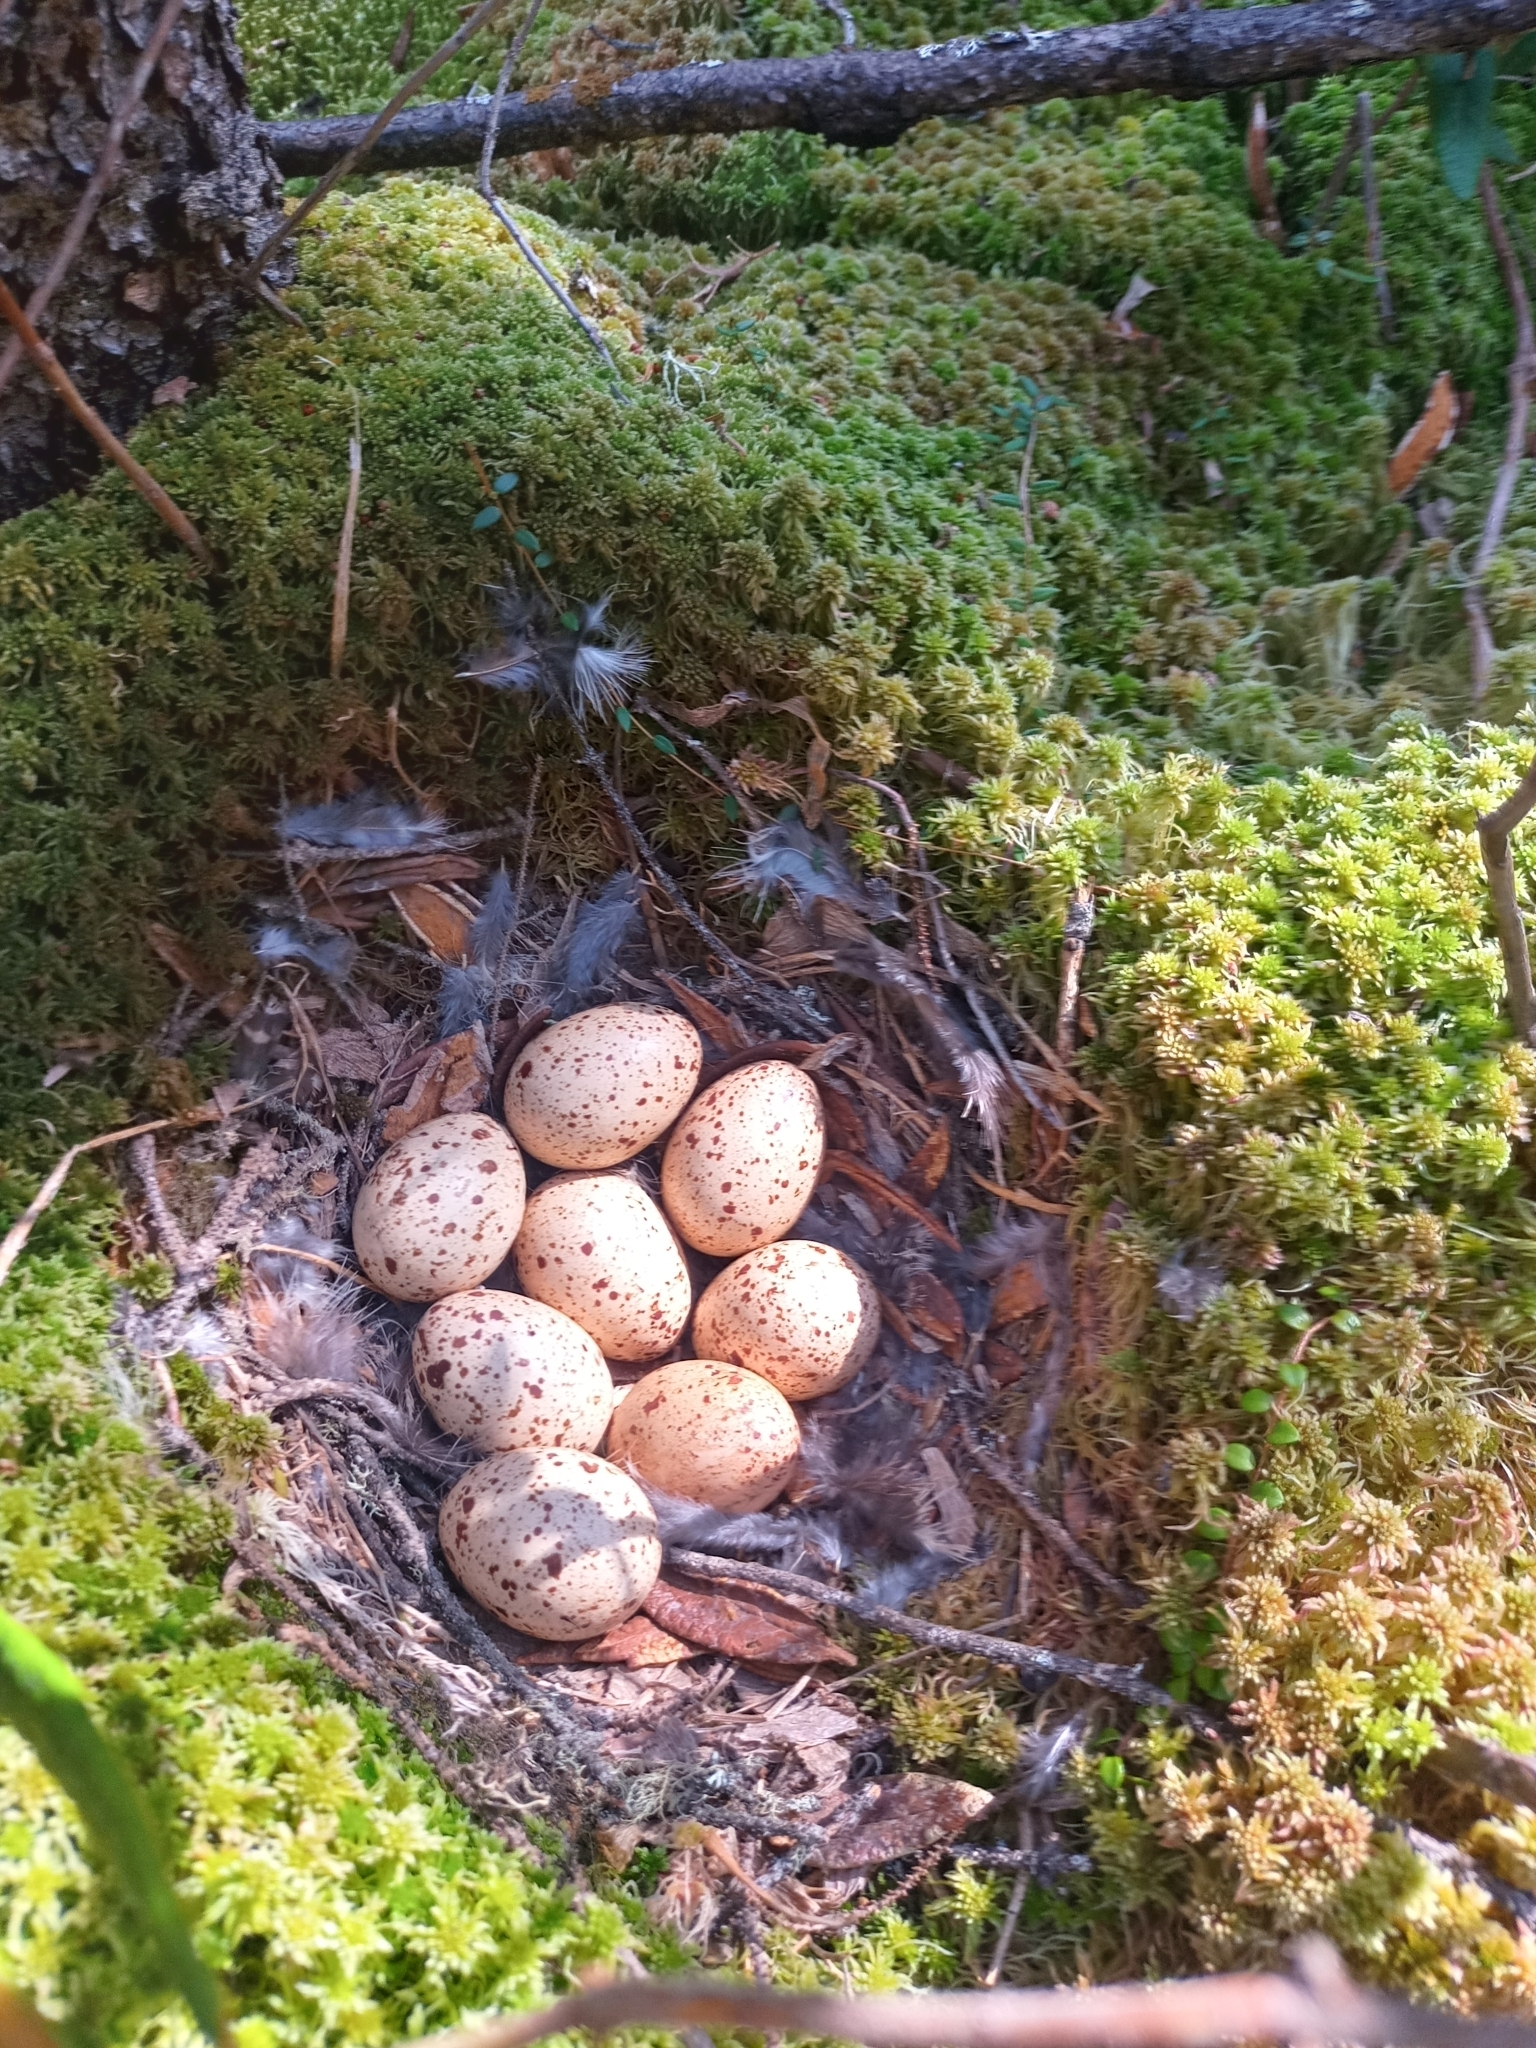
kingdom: Animalia
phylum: Chordata
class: Aves
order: Galliformes
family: Phasianidae
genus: Canachites
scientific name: Canachites canadensis
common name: Spruce grouse
